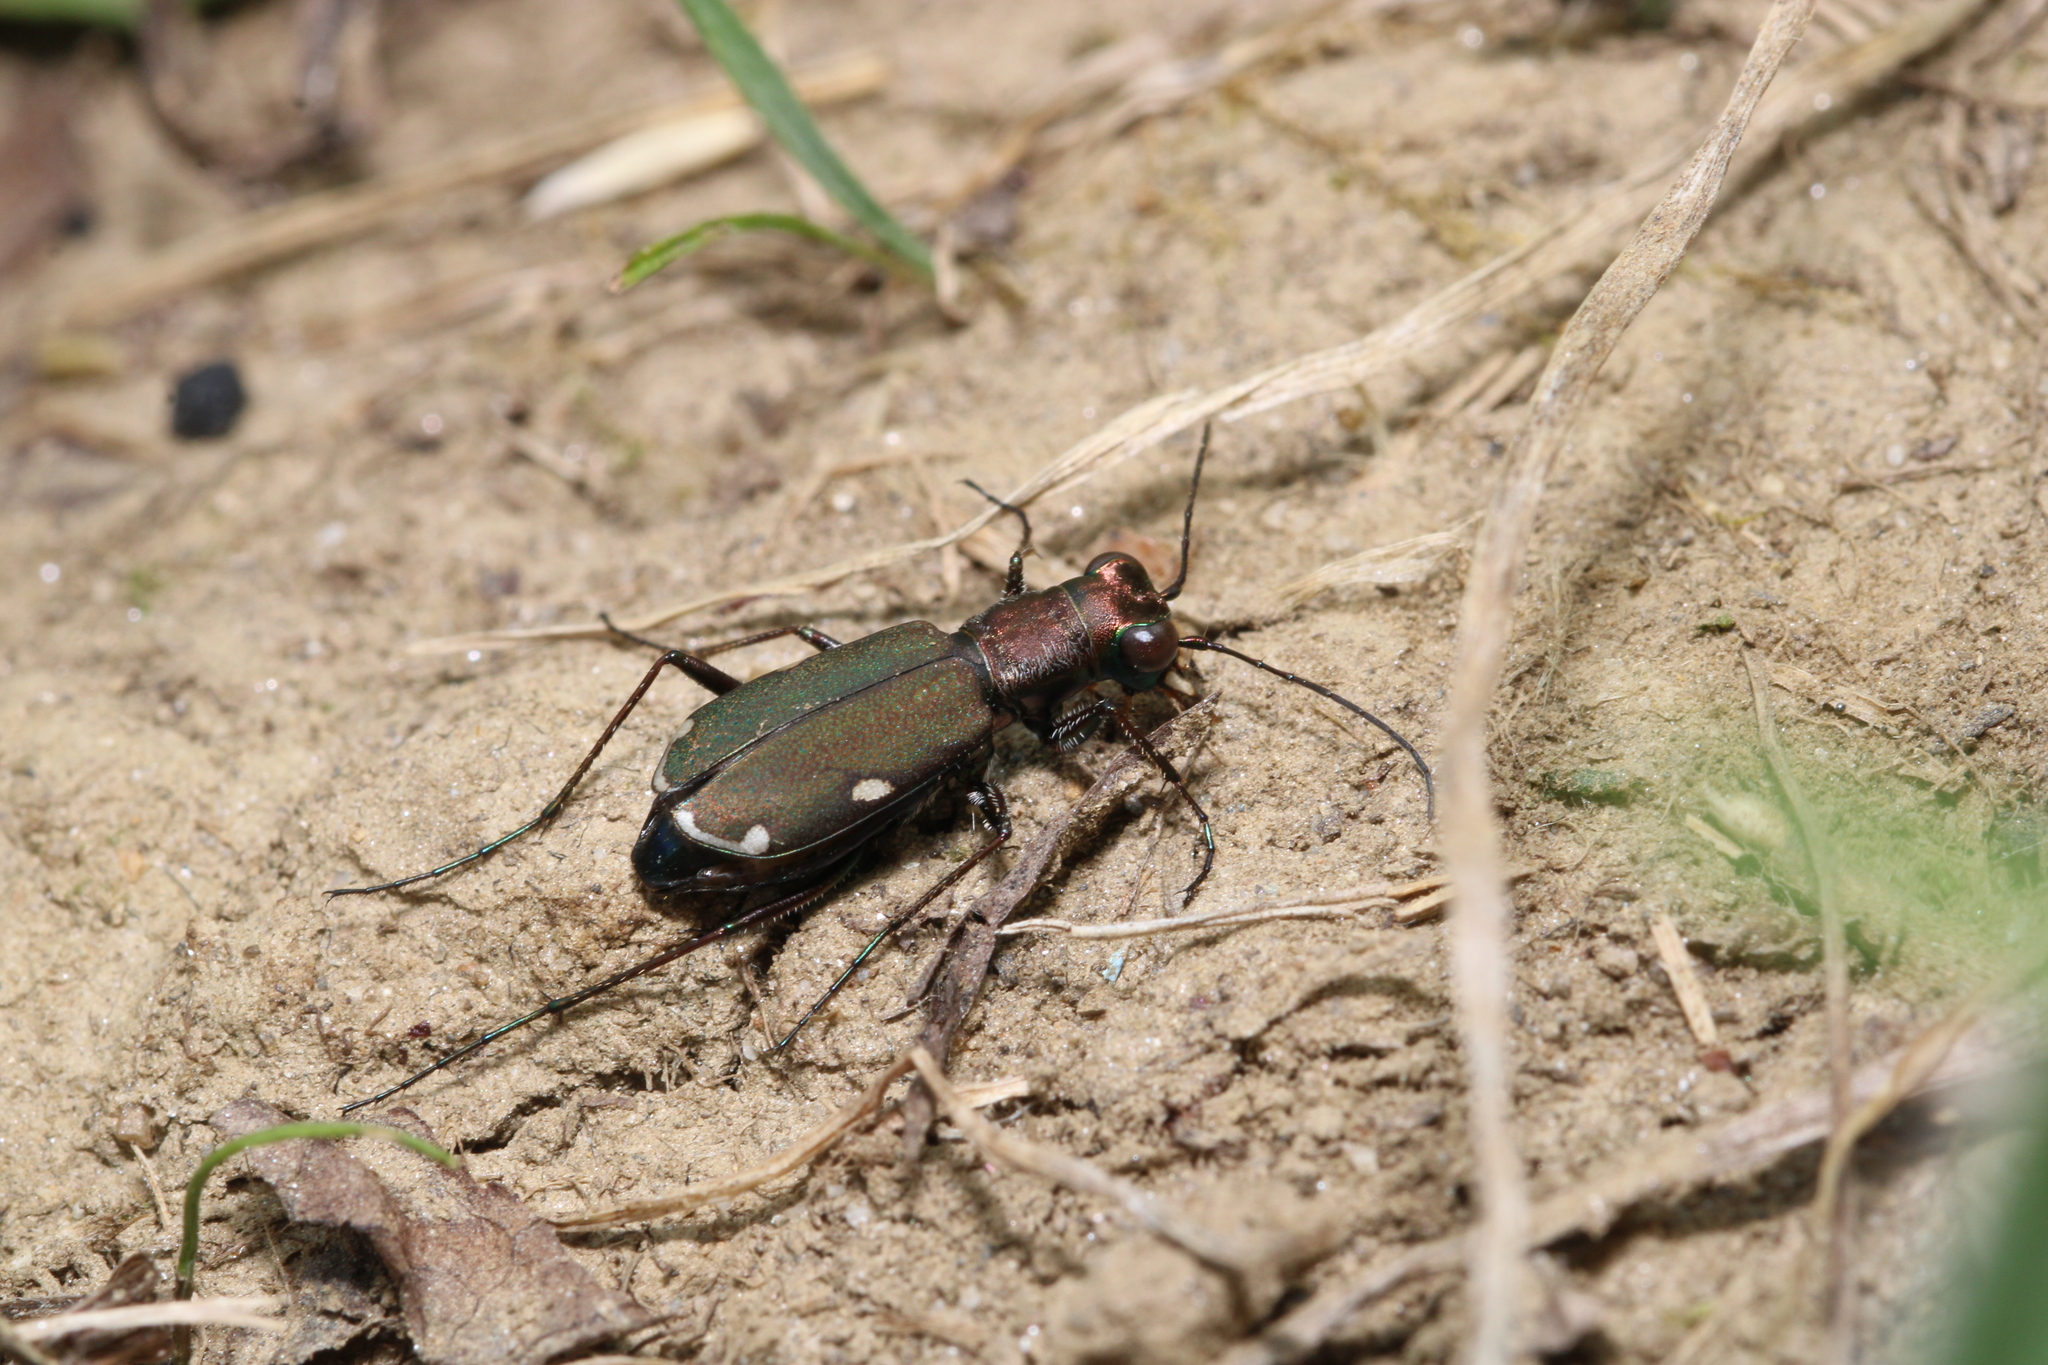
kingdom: Animalia
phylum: Arthropoda
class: Insecta
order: Coleoptera
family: Carabidae
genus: Cylindera
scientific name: Cylindera germanica
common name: Cliff tiger beetle
